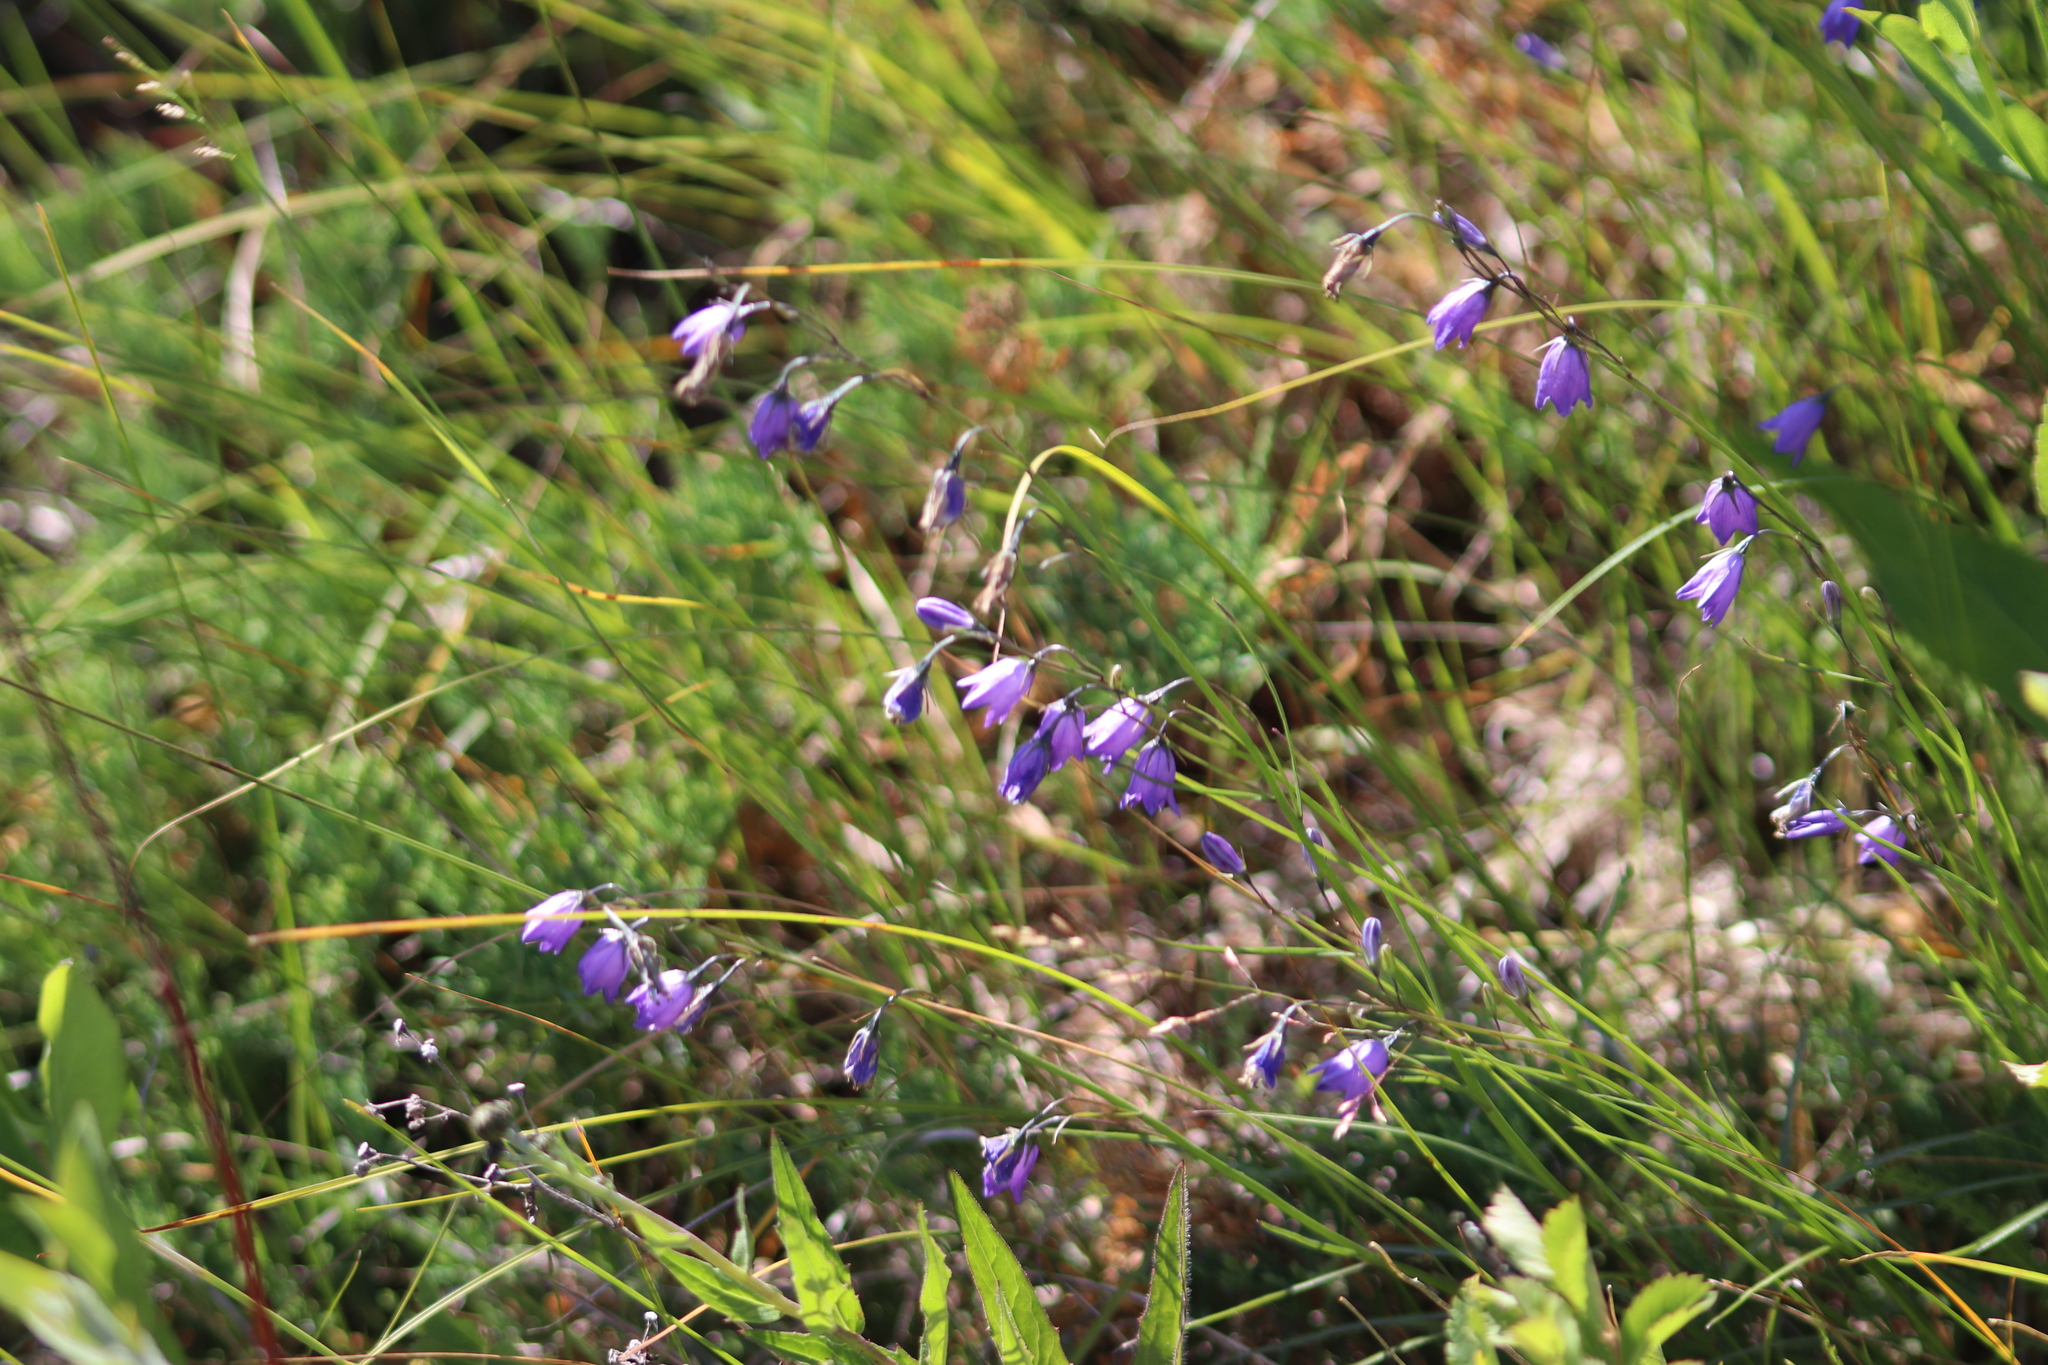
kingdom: Plantae
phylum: Tracheophyta
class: Magnoliopsida
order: Asterales
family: Campanulaceae
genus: Campanula
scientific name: Campanula alaskana
